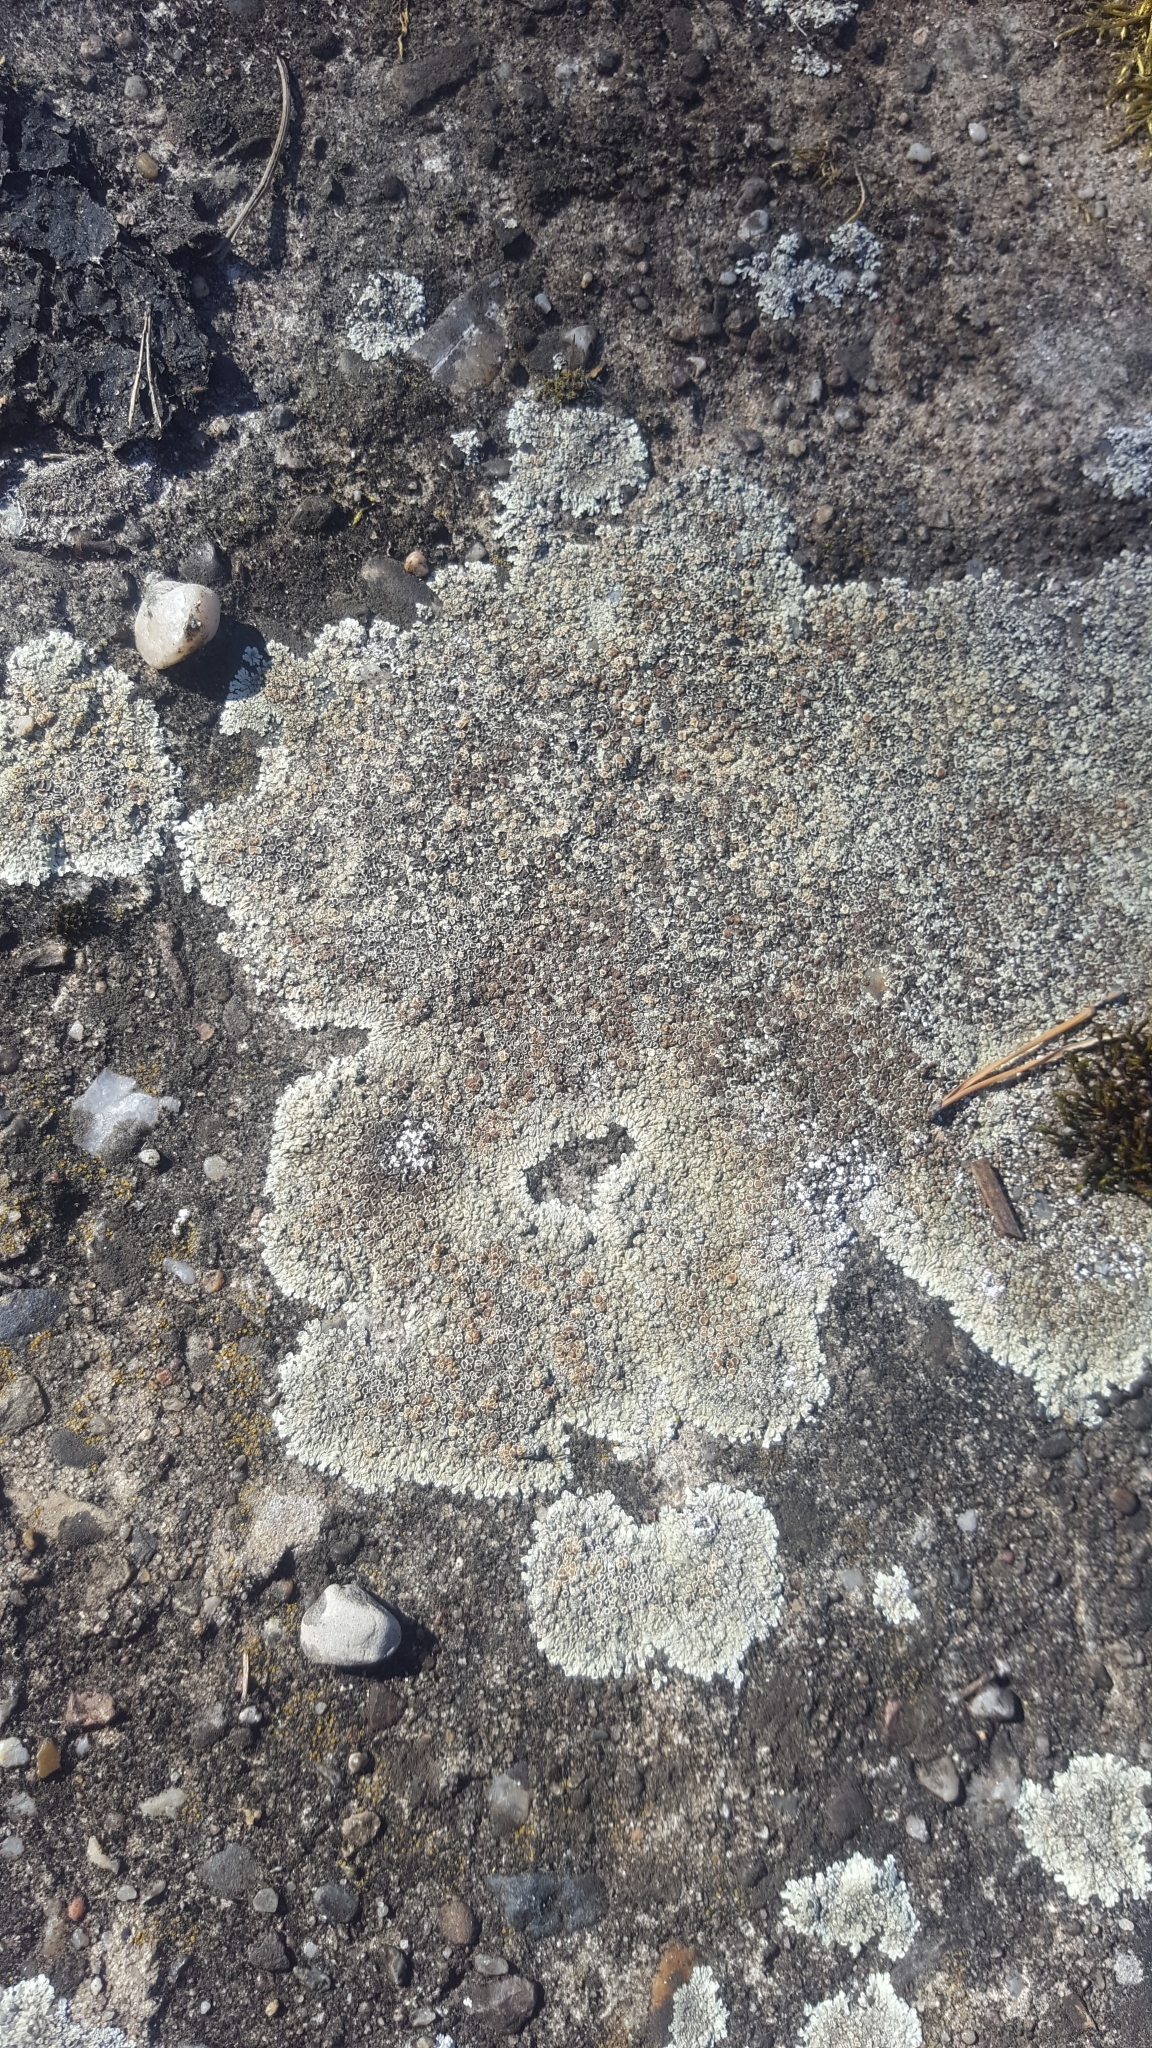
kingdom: Fungi
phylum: Ascomycota
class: Lecanoromycetes
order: Lecanorales
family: Lecanoraceae
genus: Protoparmeliopsis
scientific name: Protoparmeliopsis muralis
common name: Stonewall rim lichen
